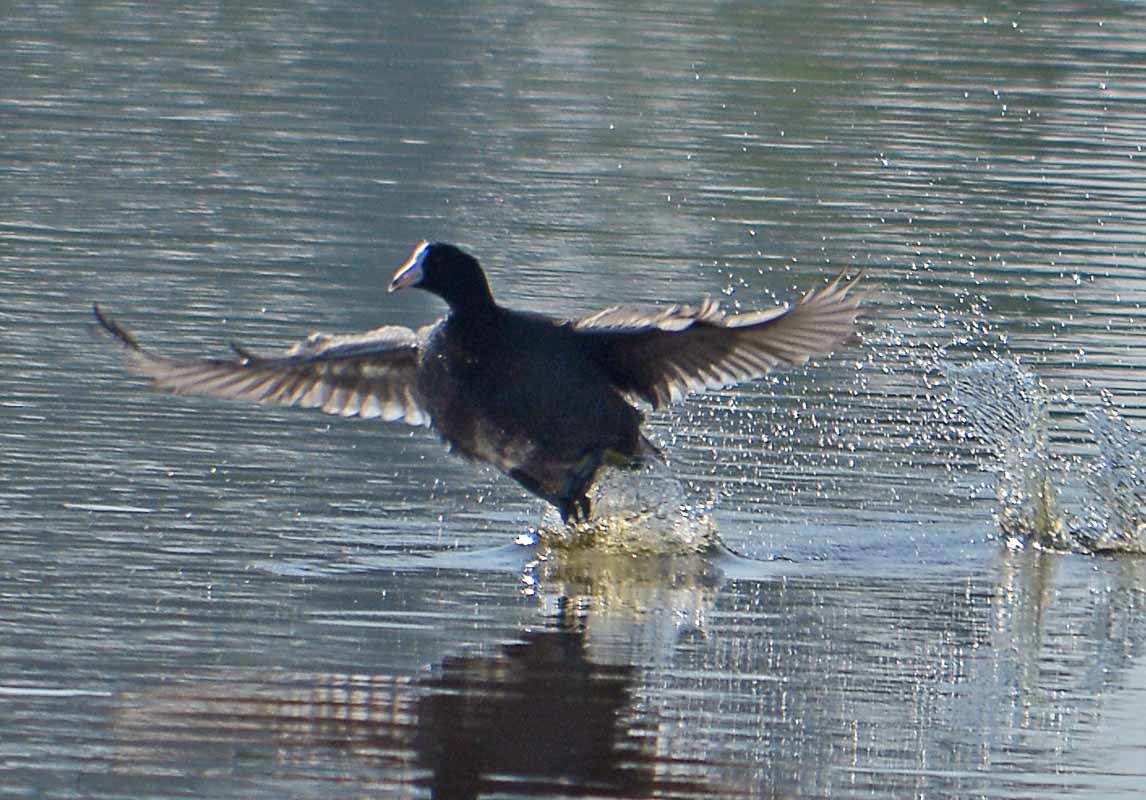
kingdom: Animalia
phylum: Chordata
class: Aves
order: Gruiformes
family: Rallidae
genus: Fulica
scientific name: Fulica americana
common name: American coot
